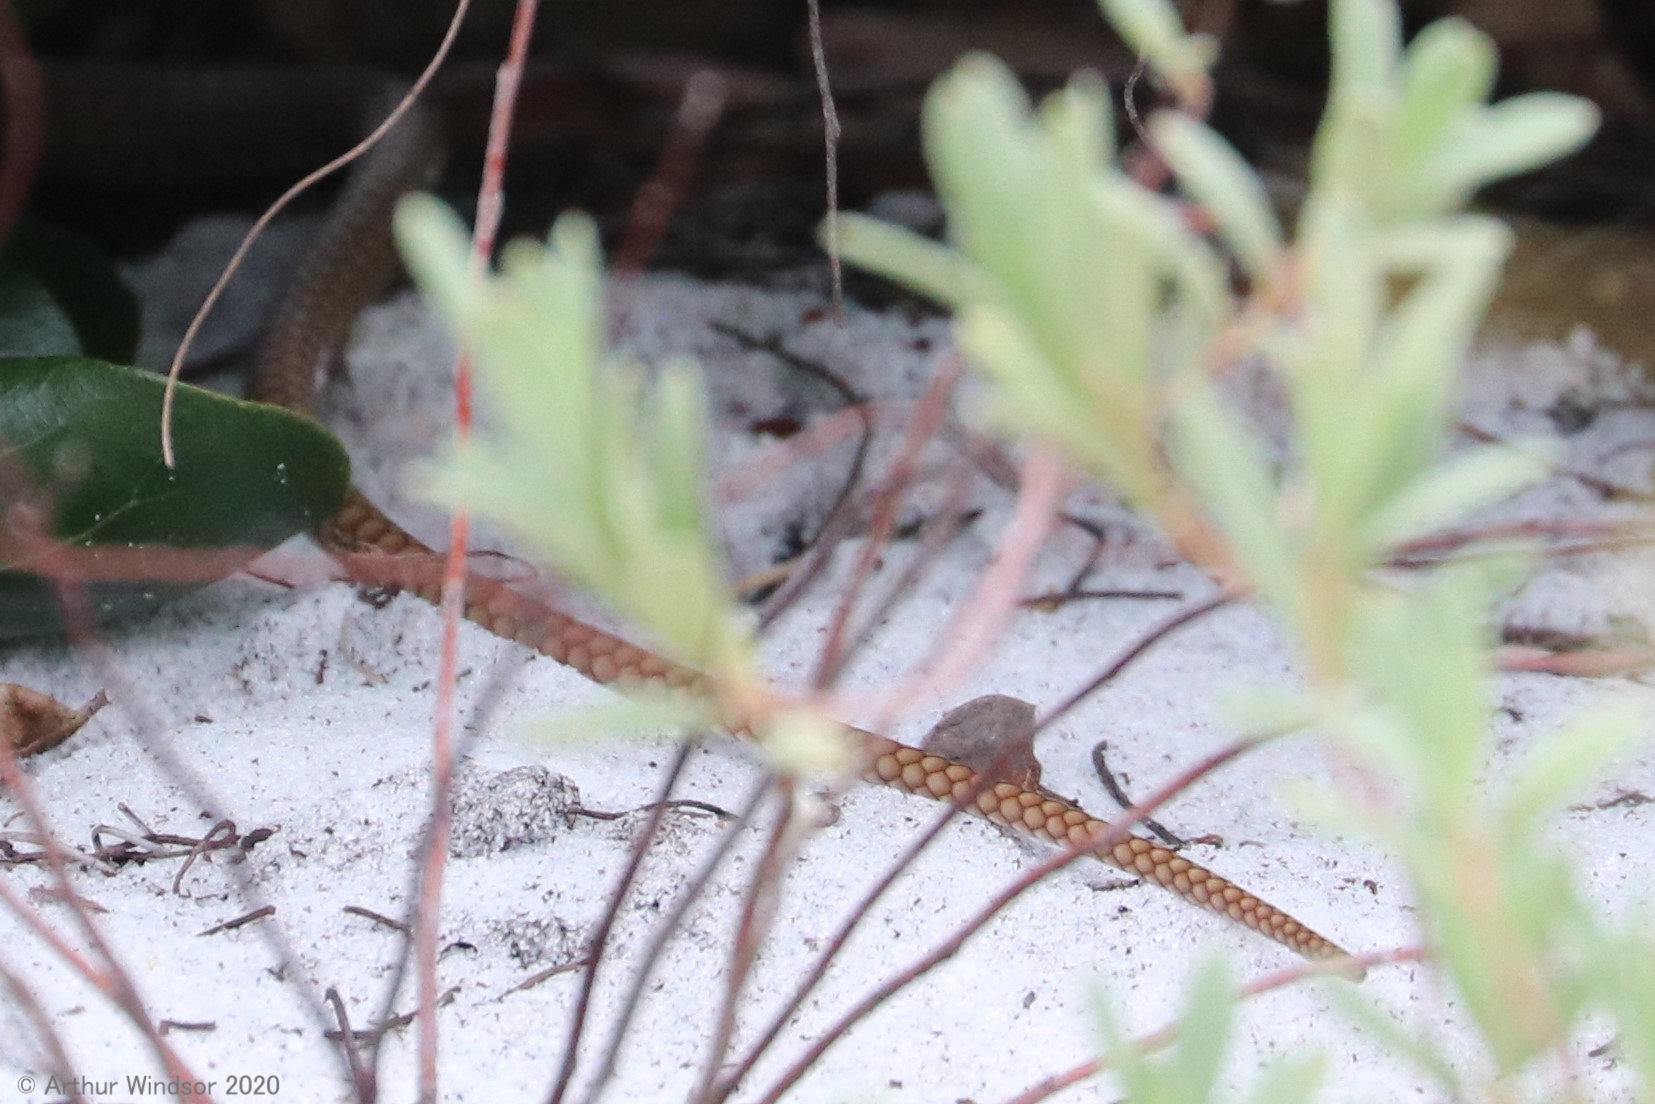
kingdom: Animalia
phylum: Chordata
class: Squamata
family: Colubridae
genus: Masticophis
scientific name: Masticophis flagellum
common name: Coachwhip
